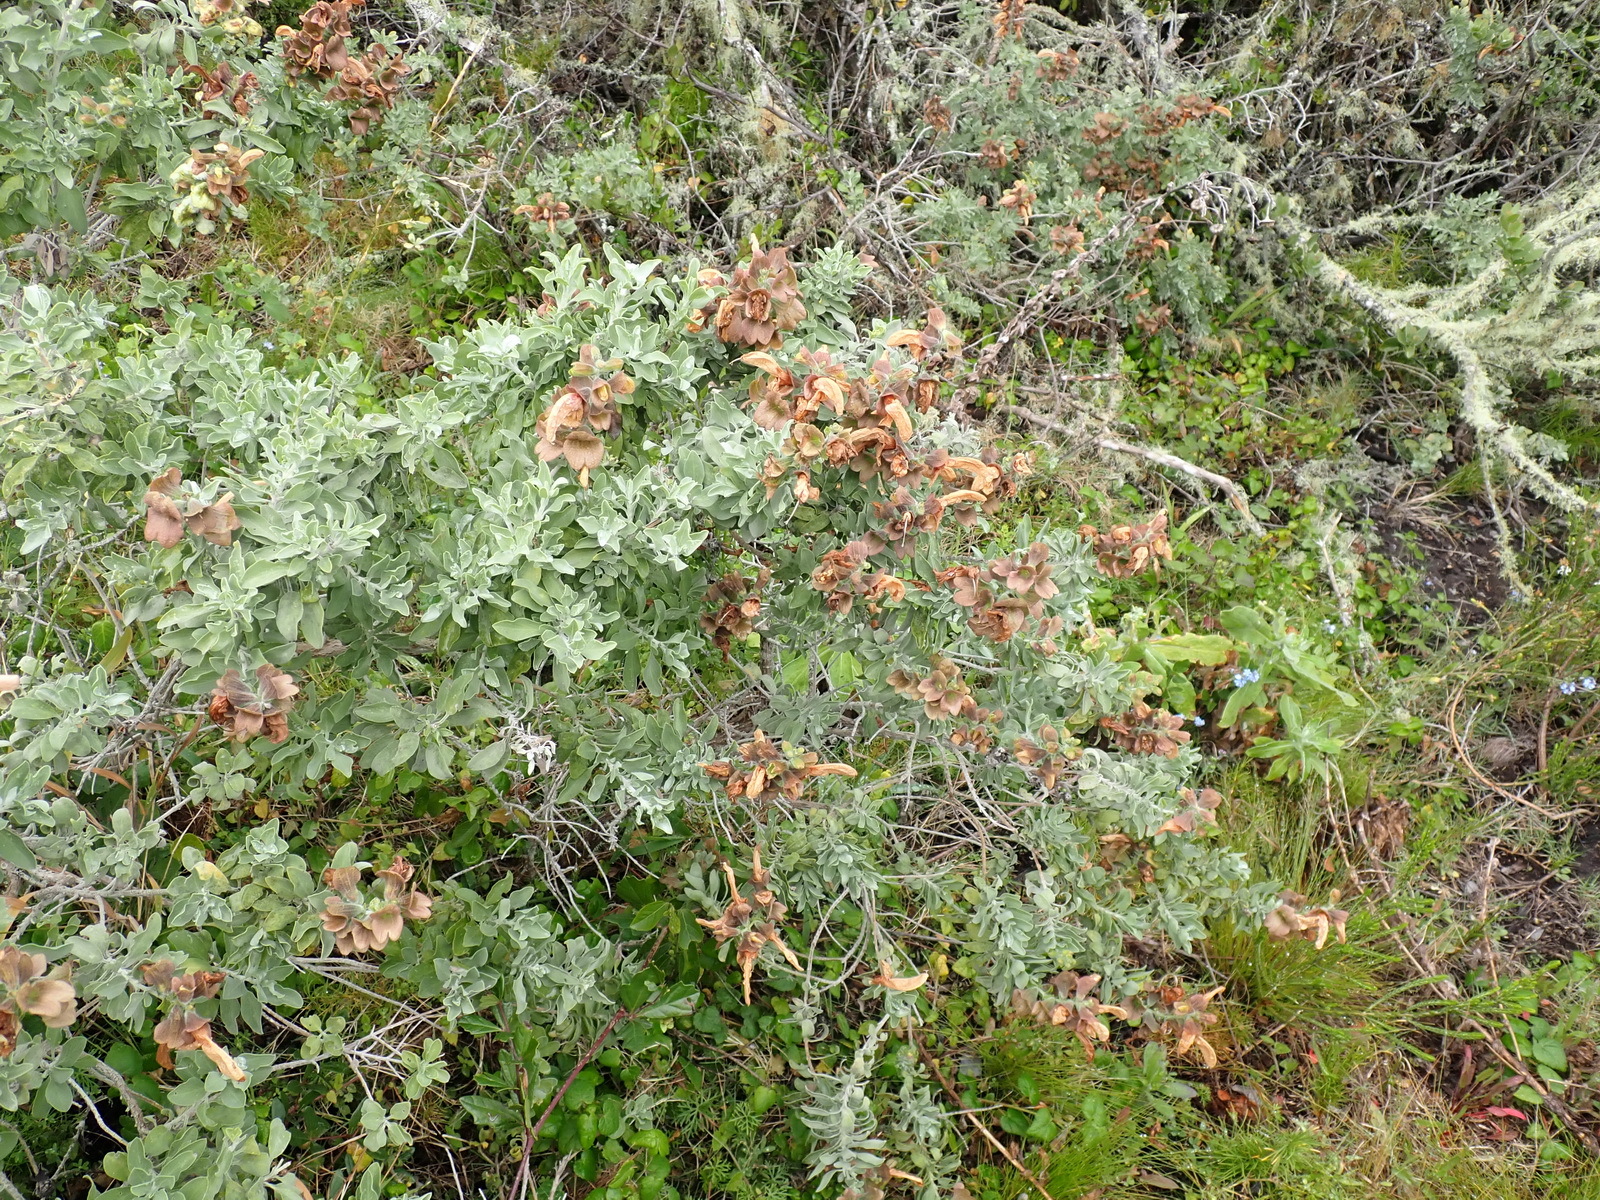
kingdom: Plantae
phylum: Tracheophyta
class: Magnoliopsida
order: Lamiales
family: Lamiaceae
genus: Salvia
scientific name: Salvia aurea
